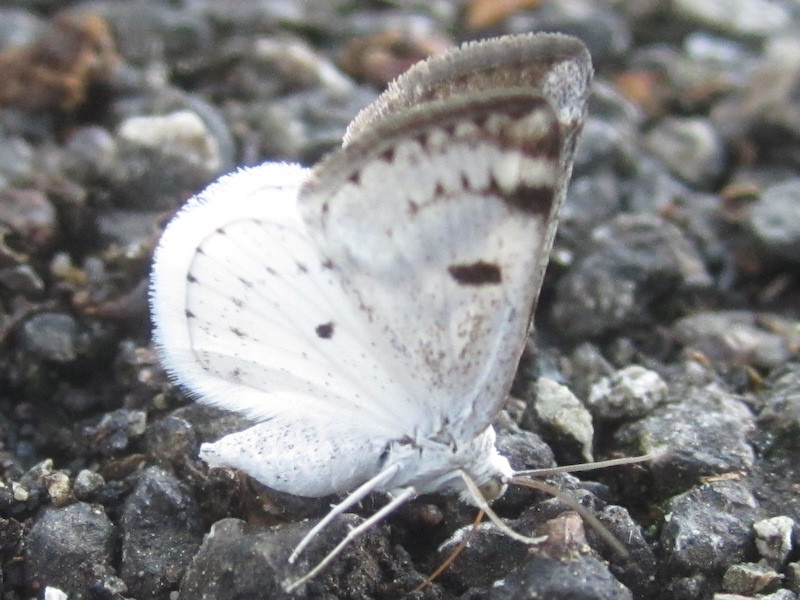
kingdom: Animalia
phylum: Arthropoda
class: Insecta
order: Lepidoptera
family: Geometridae
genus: Lomographa
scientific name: Lomographa semiclarata
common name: Bluish spring moth
